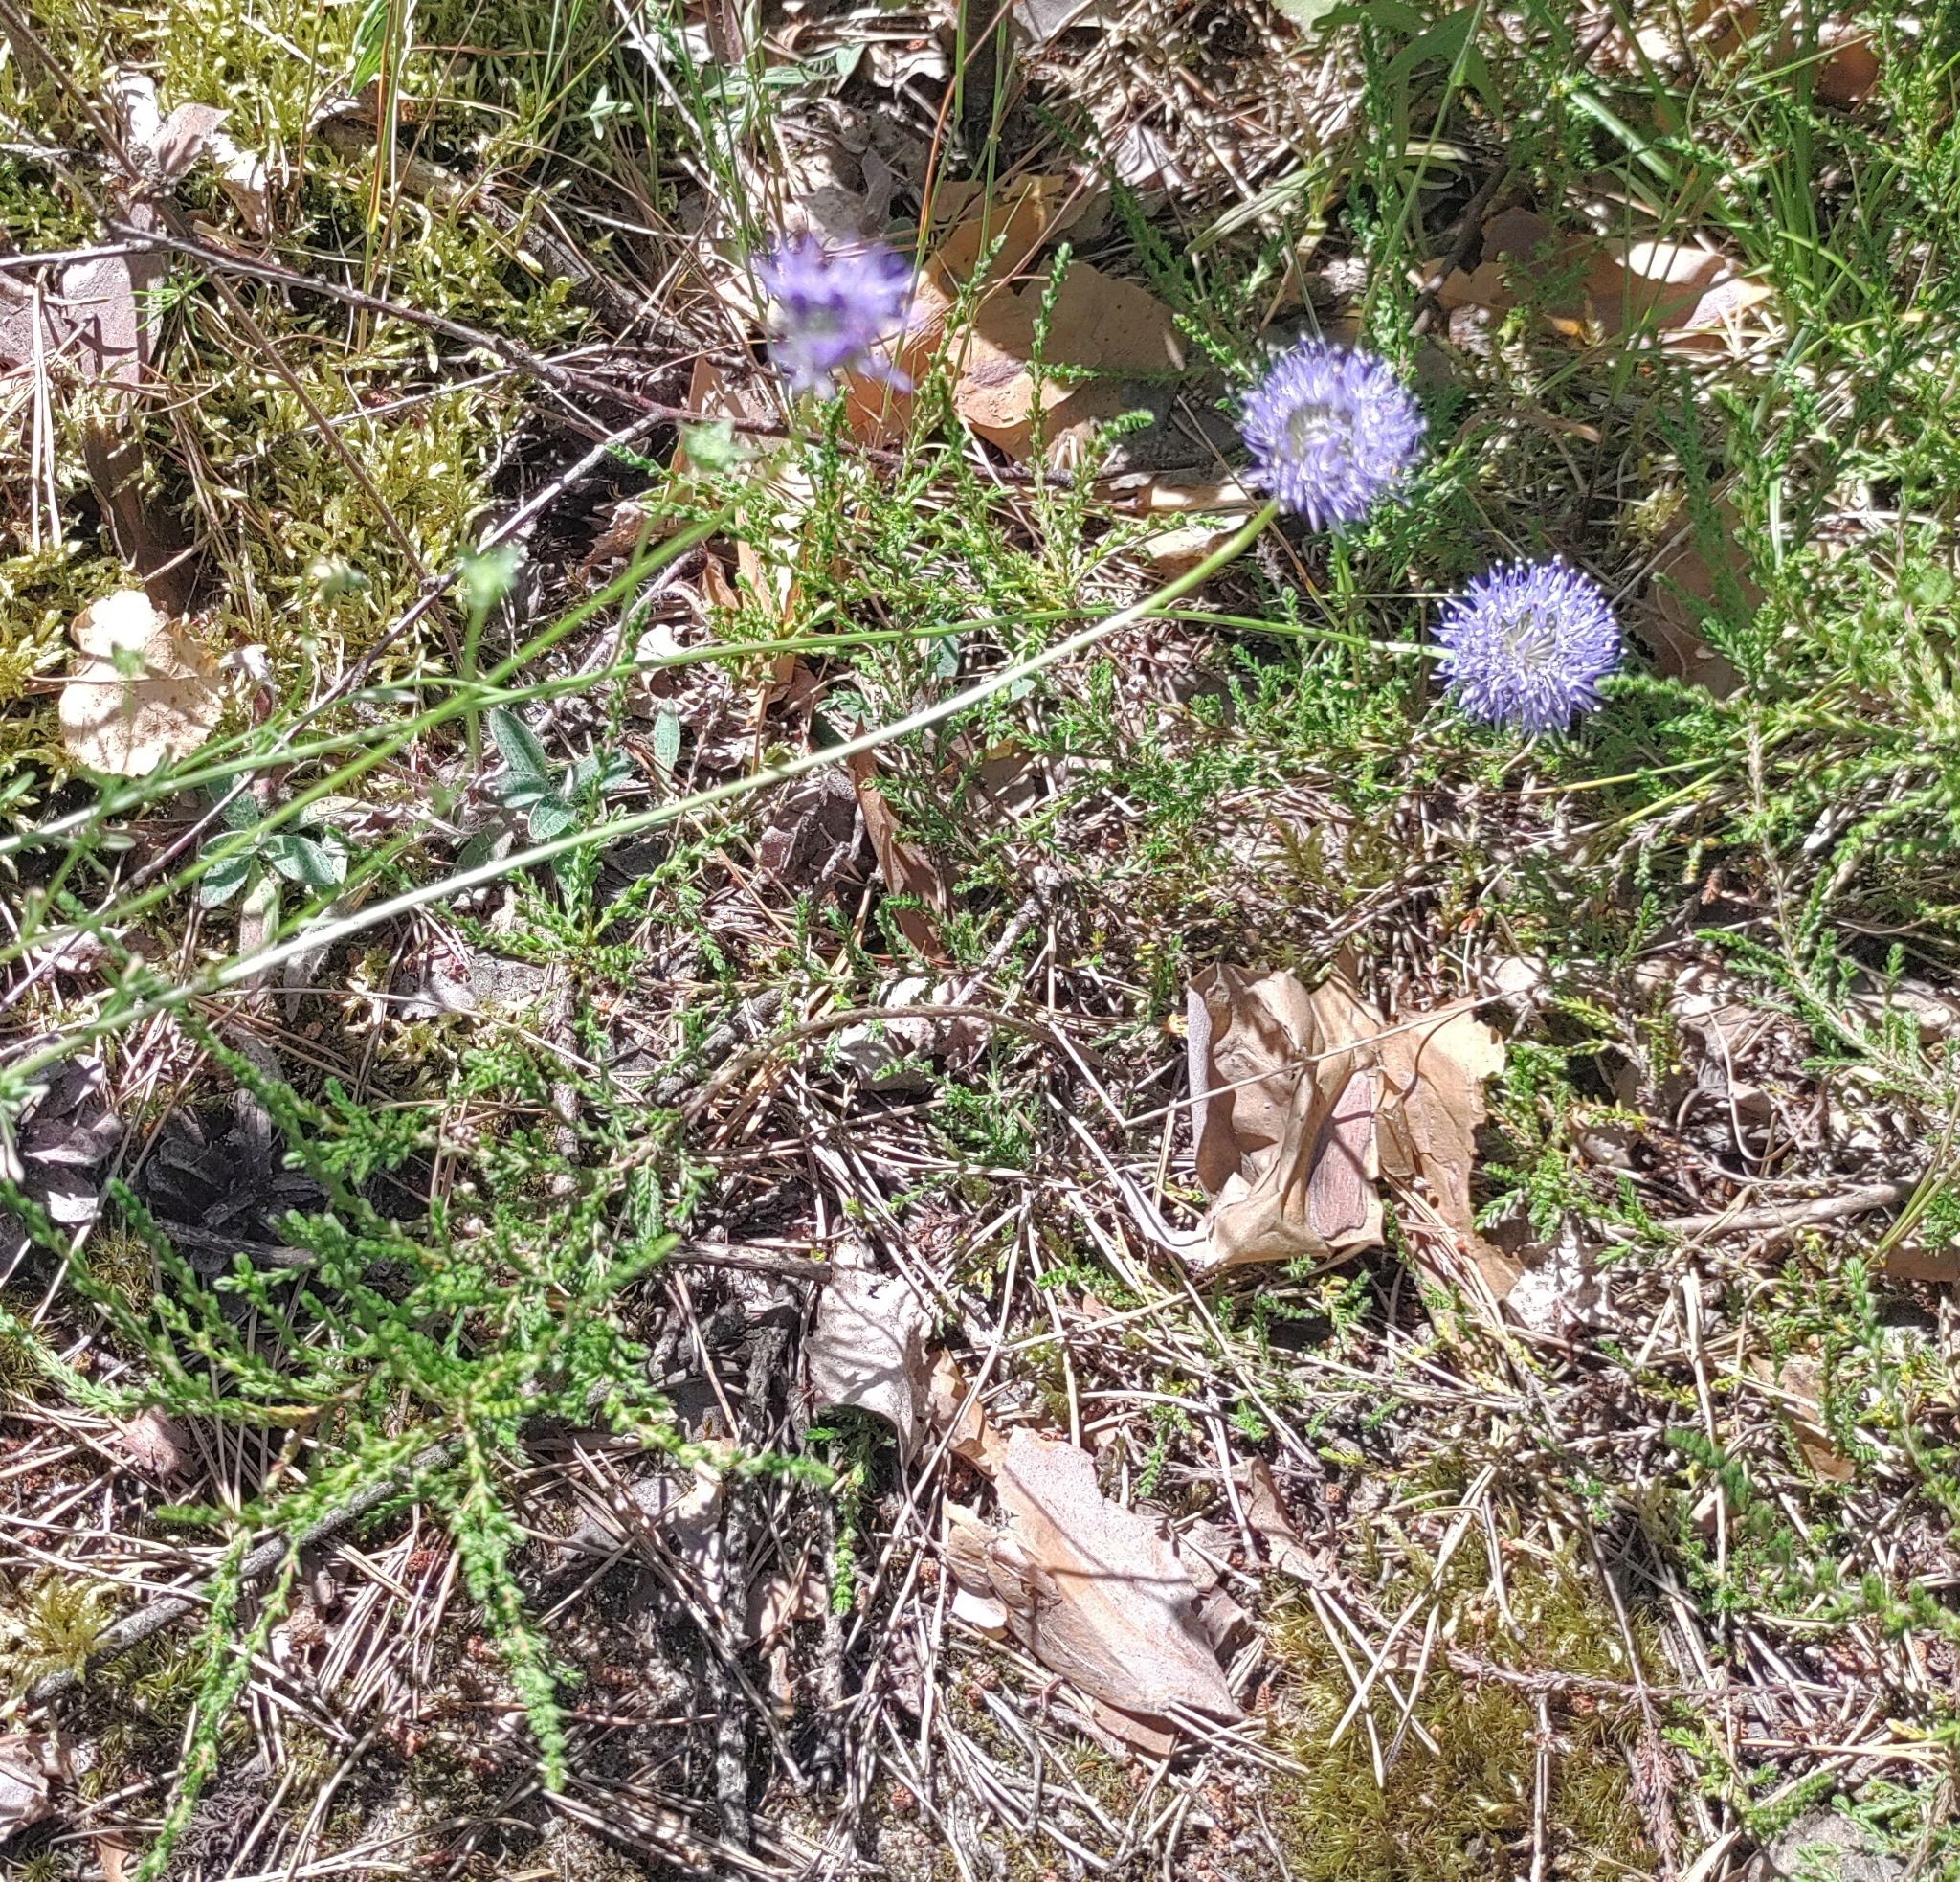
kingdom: Plantae
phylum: Tracheophyta
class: Magnoliopsida
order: Asterales
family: Campanulaceae
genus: Jasione
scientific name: Jasione montana
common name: Sheep's-bit
